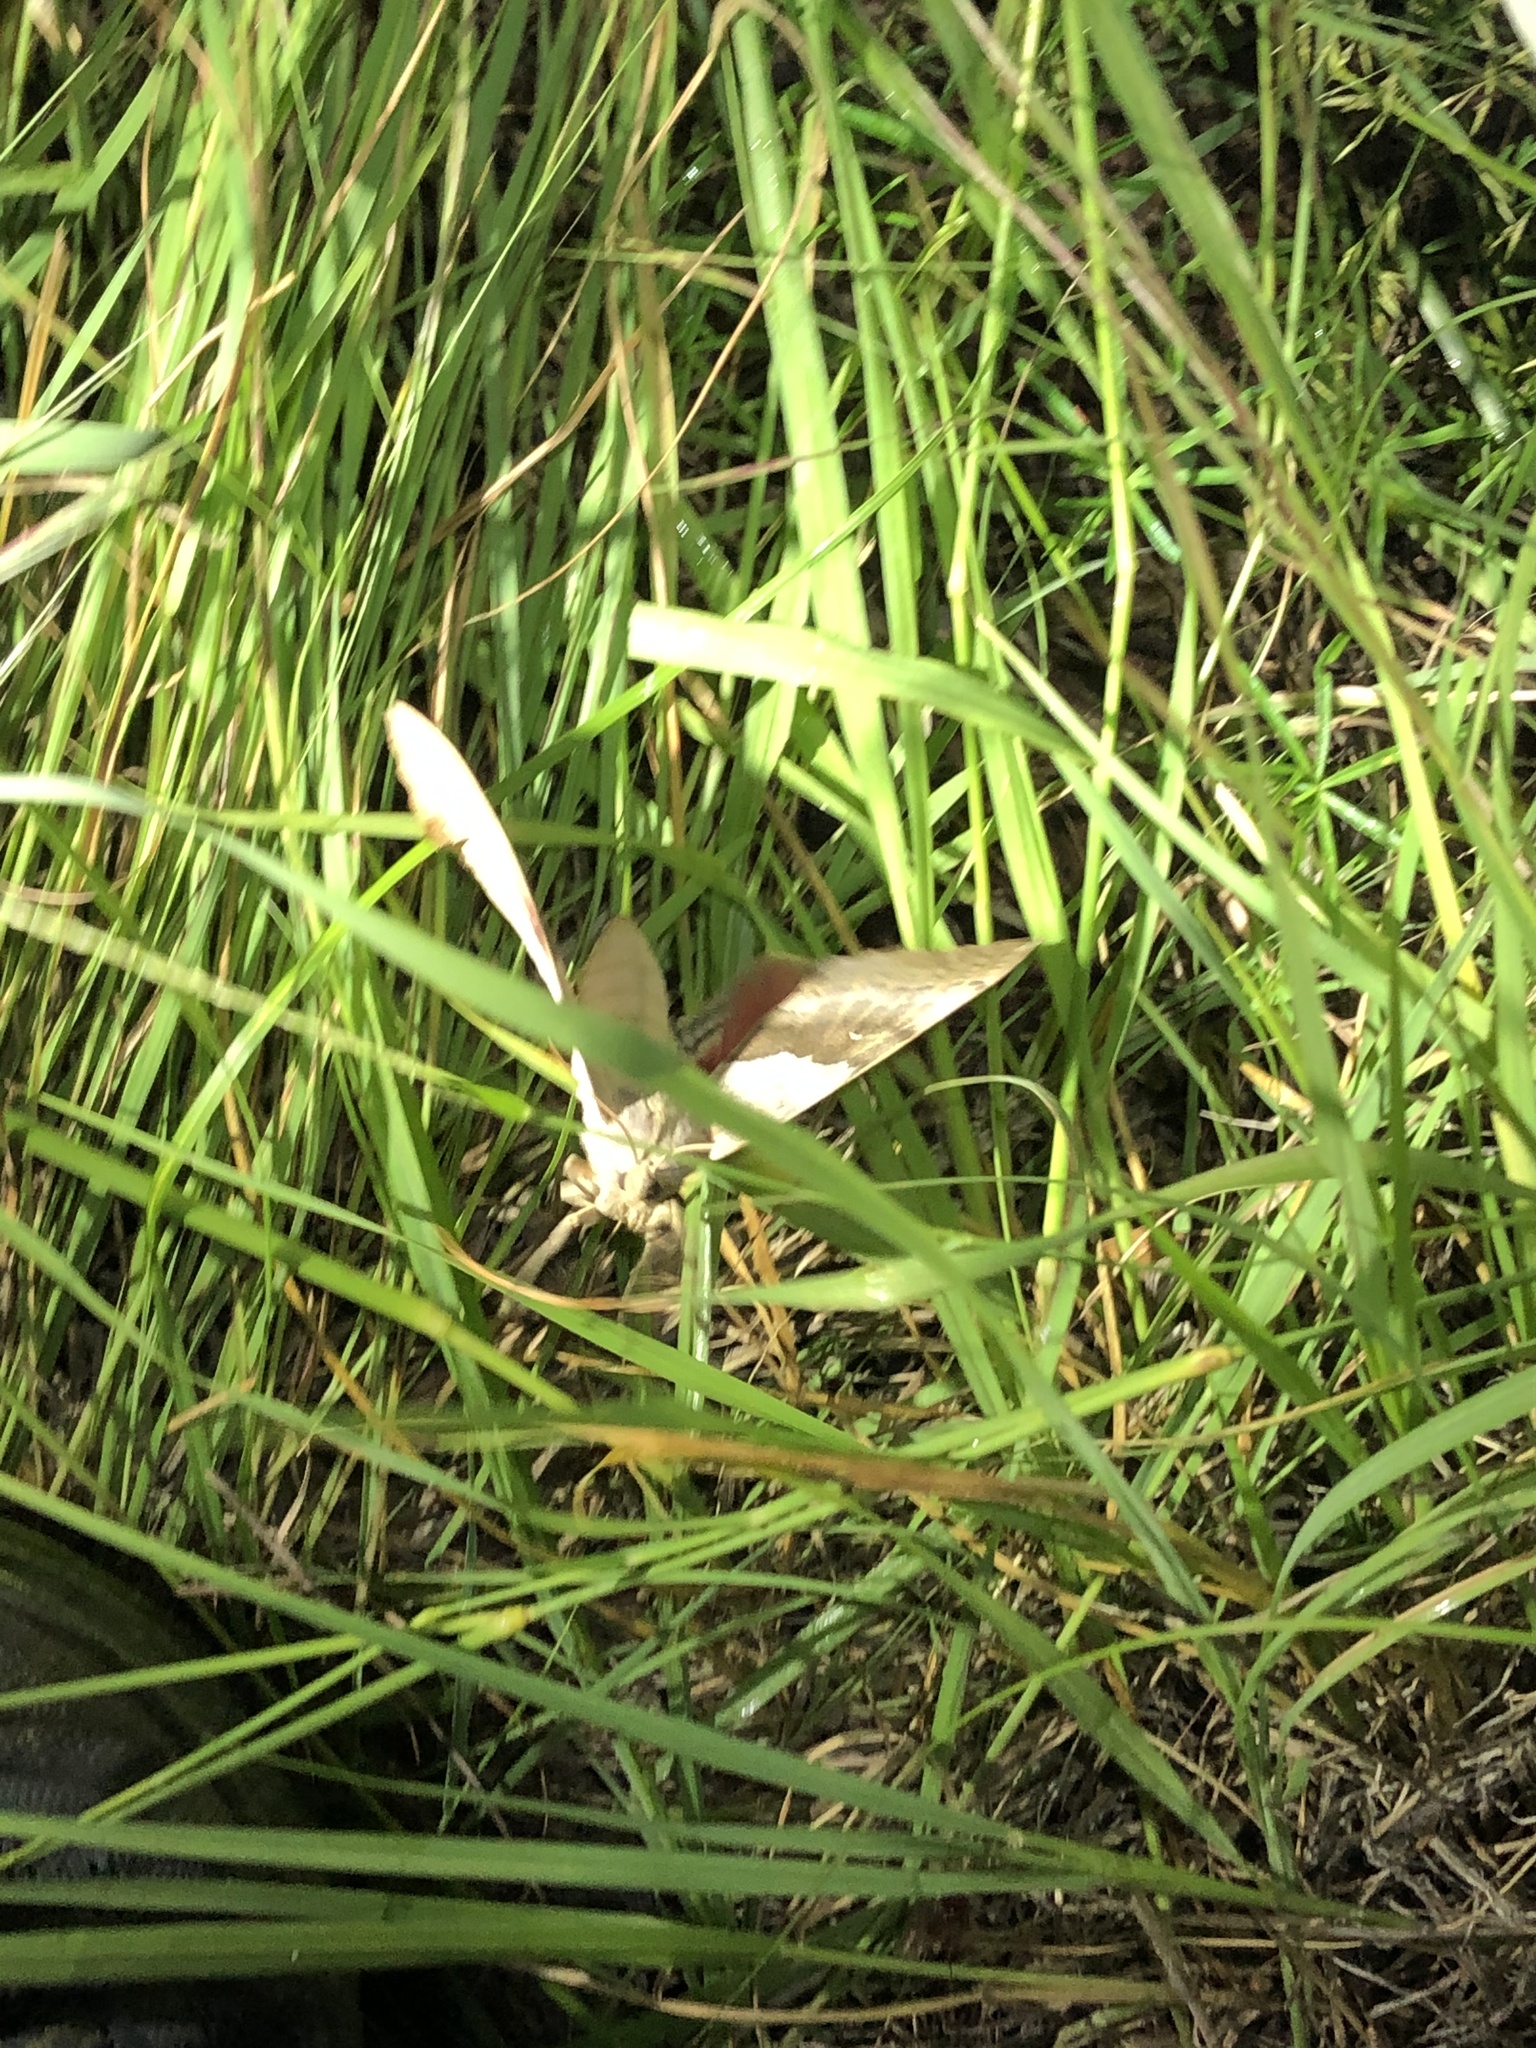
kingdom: Animalia
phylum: Arthropoda
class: Insecta
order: Lepidoptera
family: Sphingidae
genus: Pachysphinx
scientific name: Pachysphinx occidentalis
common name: Western poplar sphinx
